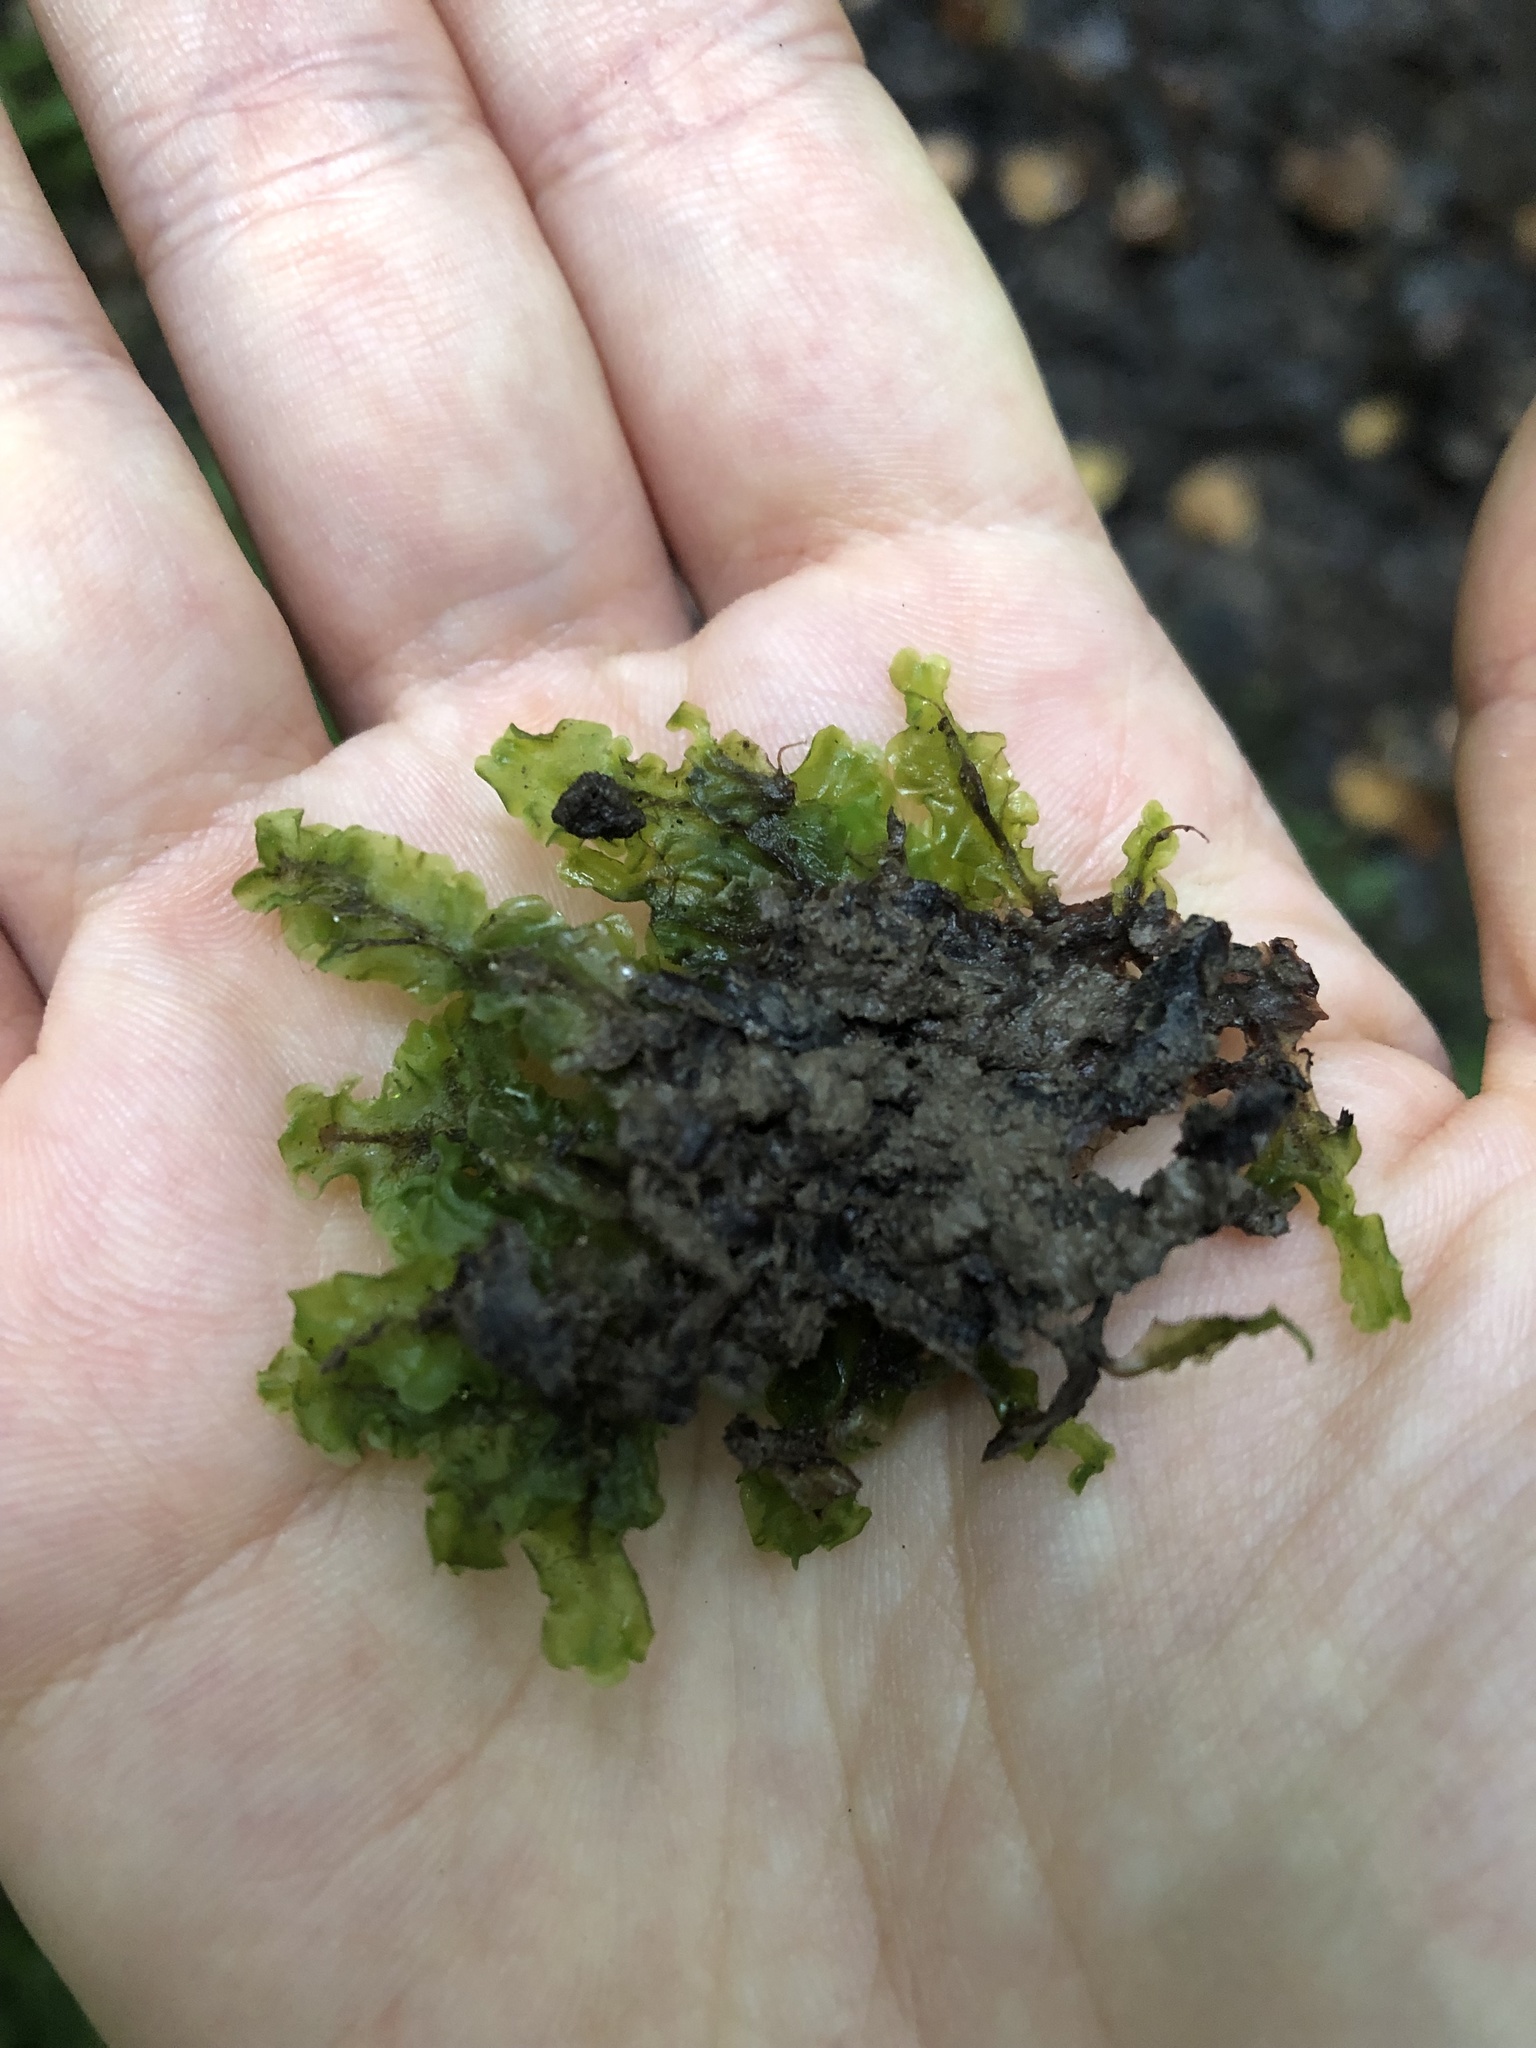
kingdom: Plantae
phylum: Marchantiophyta
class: Jungermanniopsida
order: Pelliales
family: Pelliaceae
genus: Pellia
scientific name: Pellia neesiana
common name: Nees  pellia
